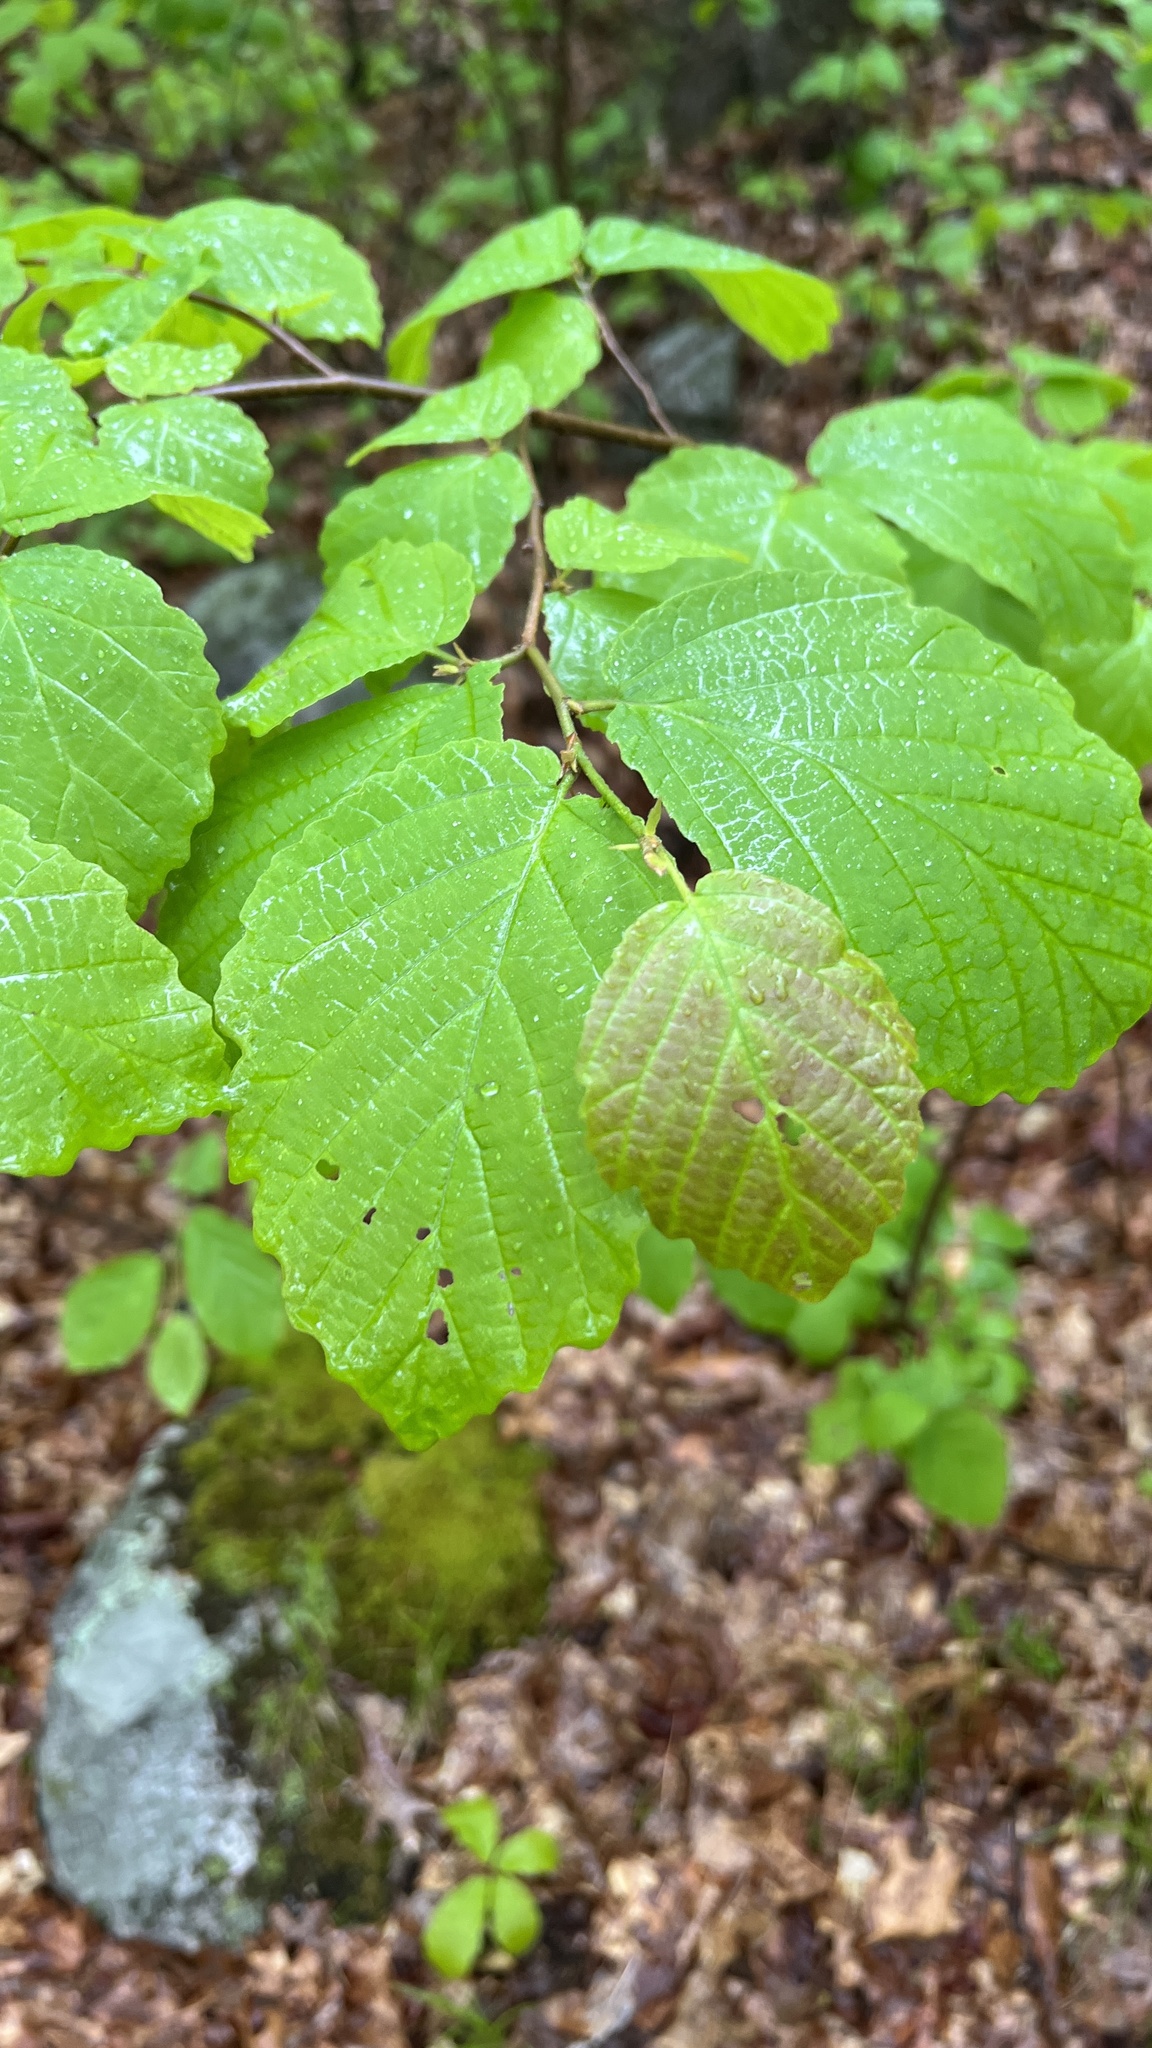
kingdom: Plantae
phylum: Tracheophyta
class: Magnoliopsida
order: Saxifragales
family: Hamamelidaceae
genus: Hamamelis
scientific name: Hamamelis virginiana
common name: Witch-hazel
